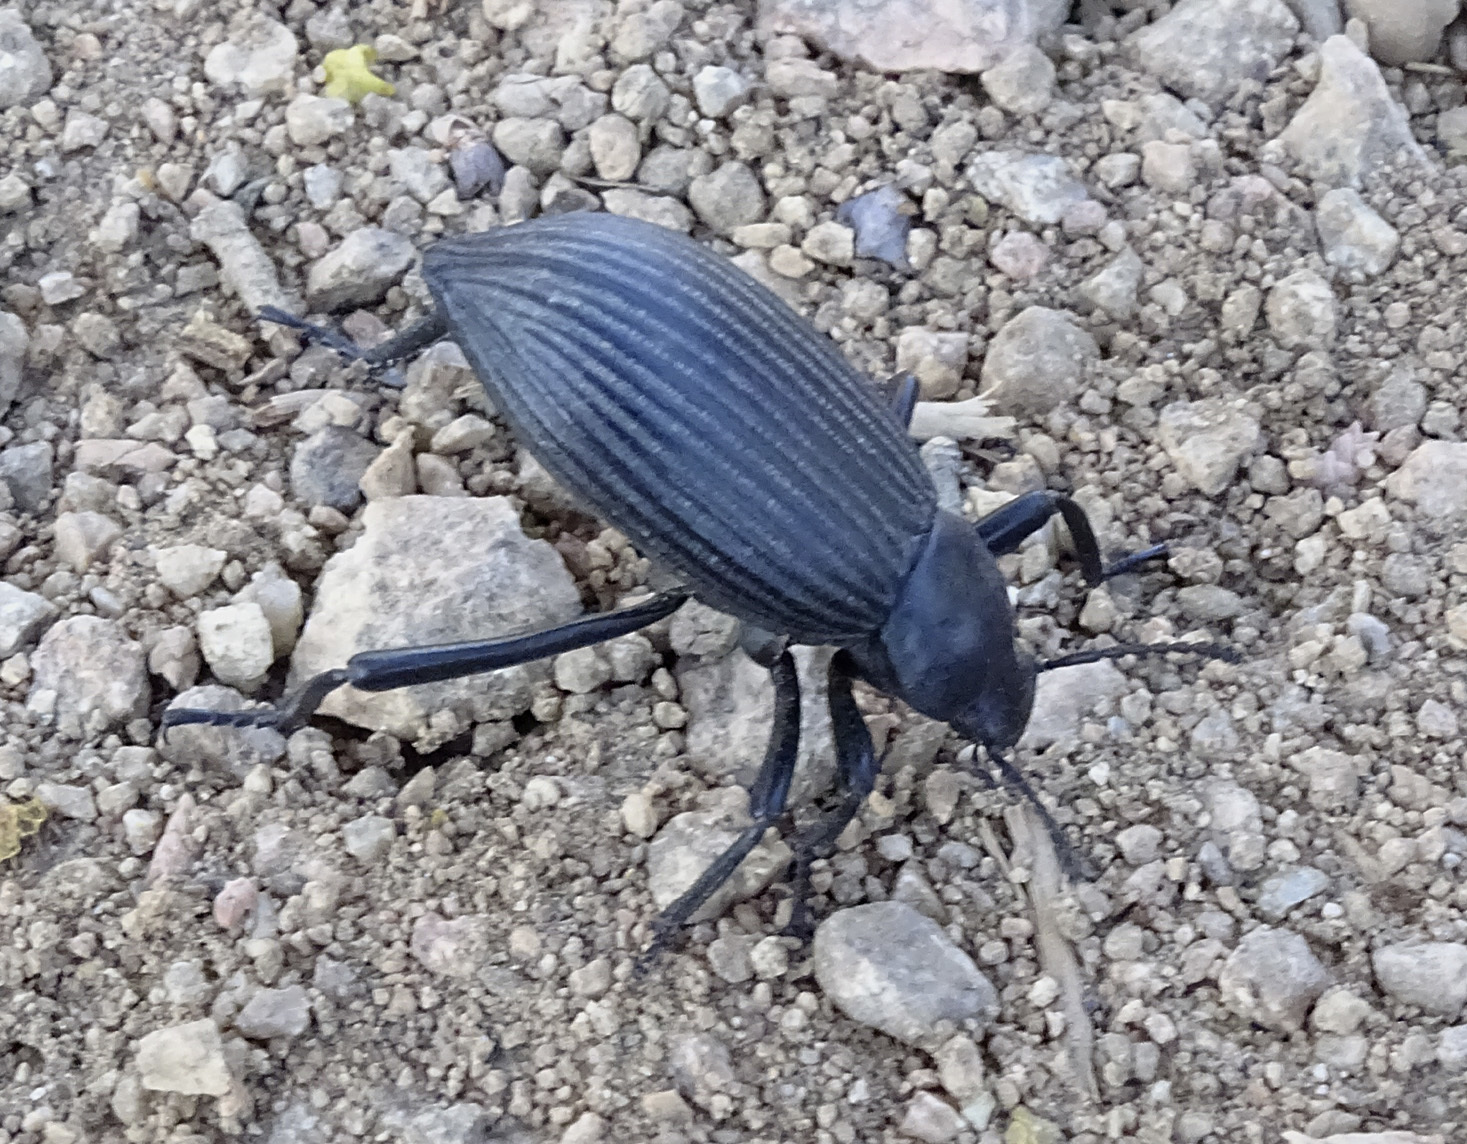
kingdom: Animalia
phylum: Arthropoda
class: Insecta
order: Coleoptera
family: Tenebrionidae
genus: Eleodes
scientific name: Eleodes hispilabris
